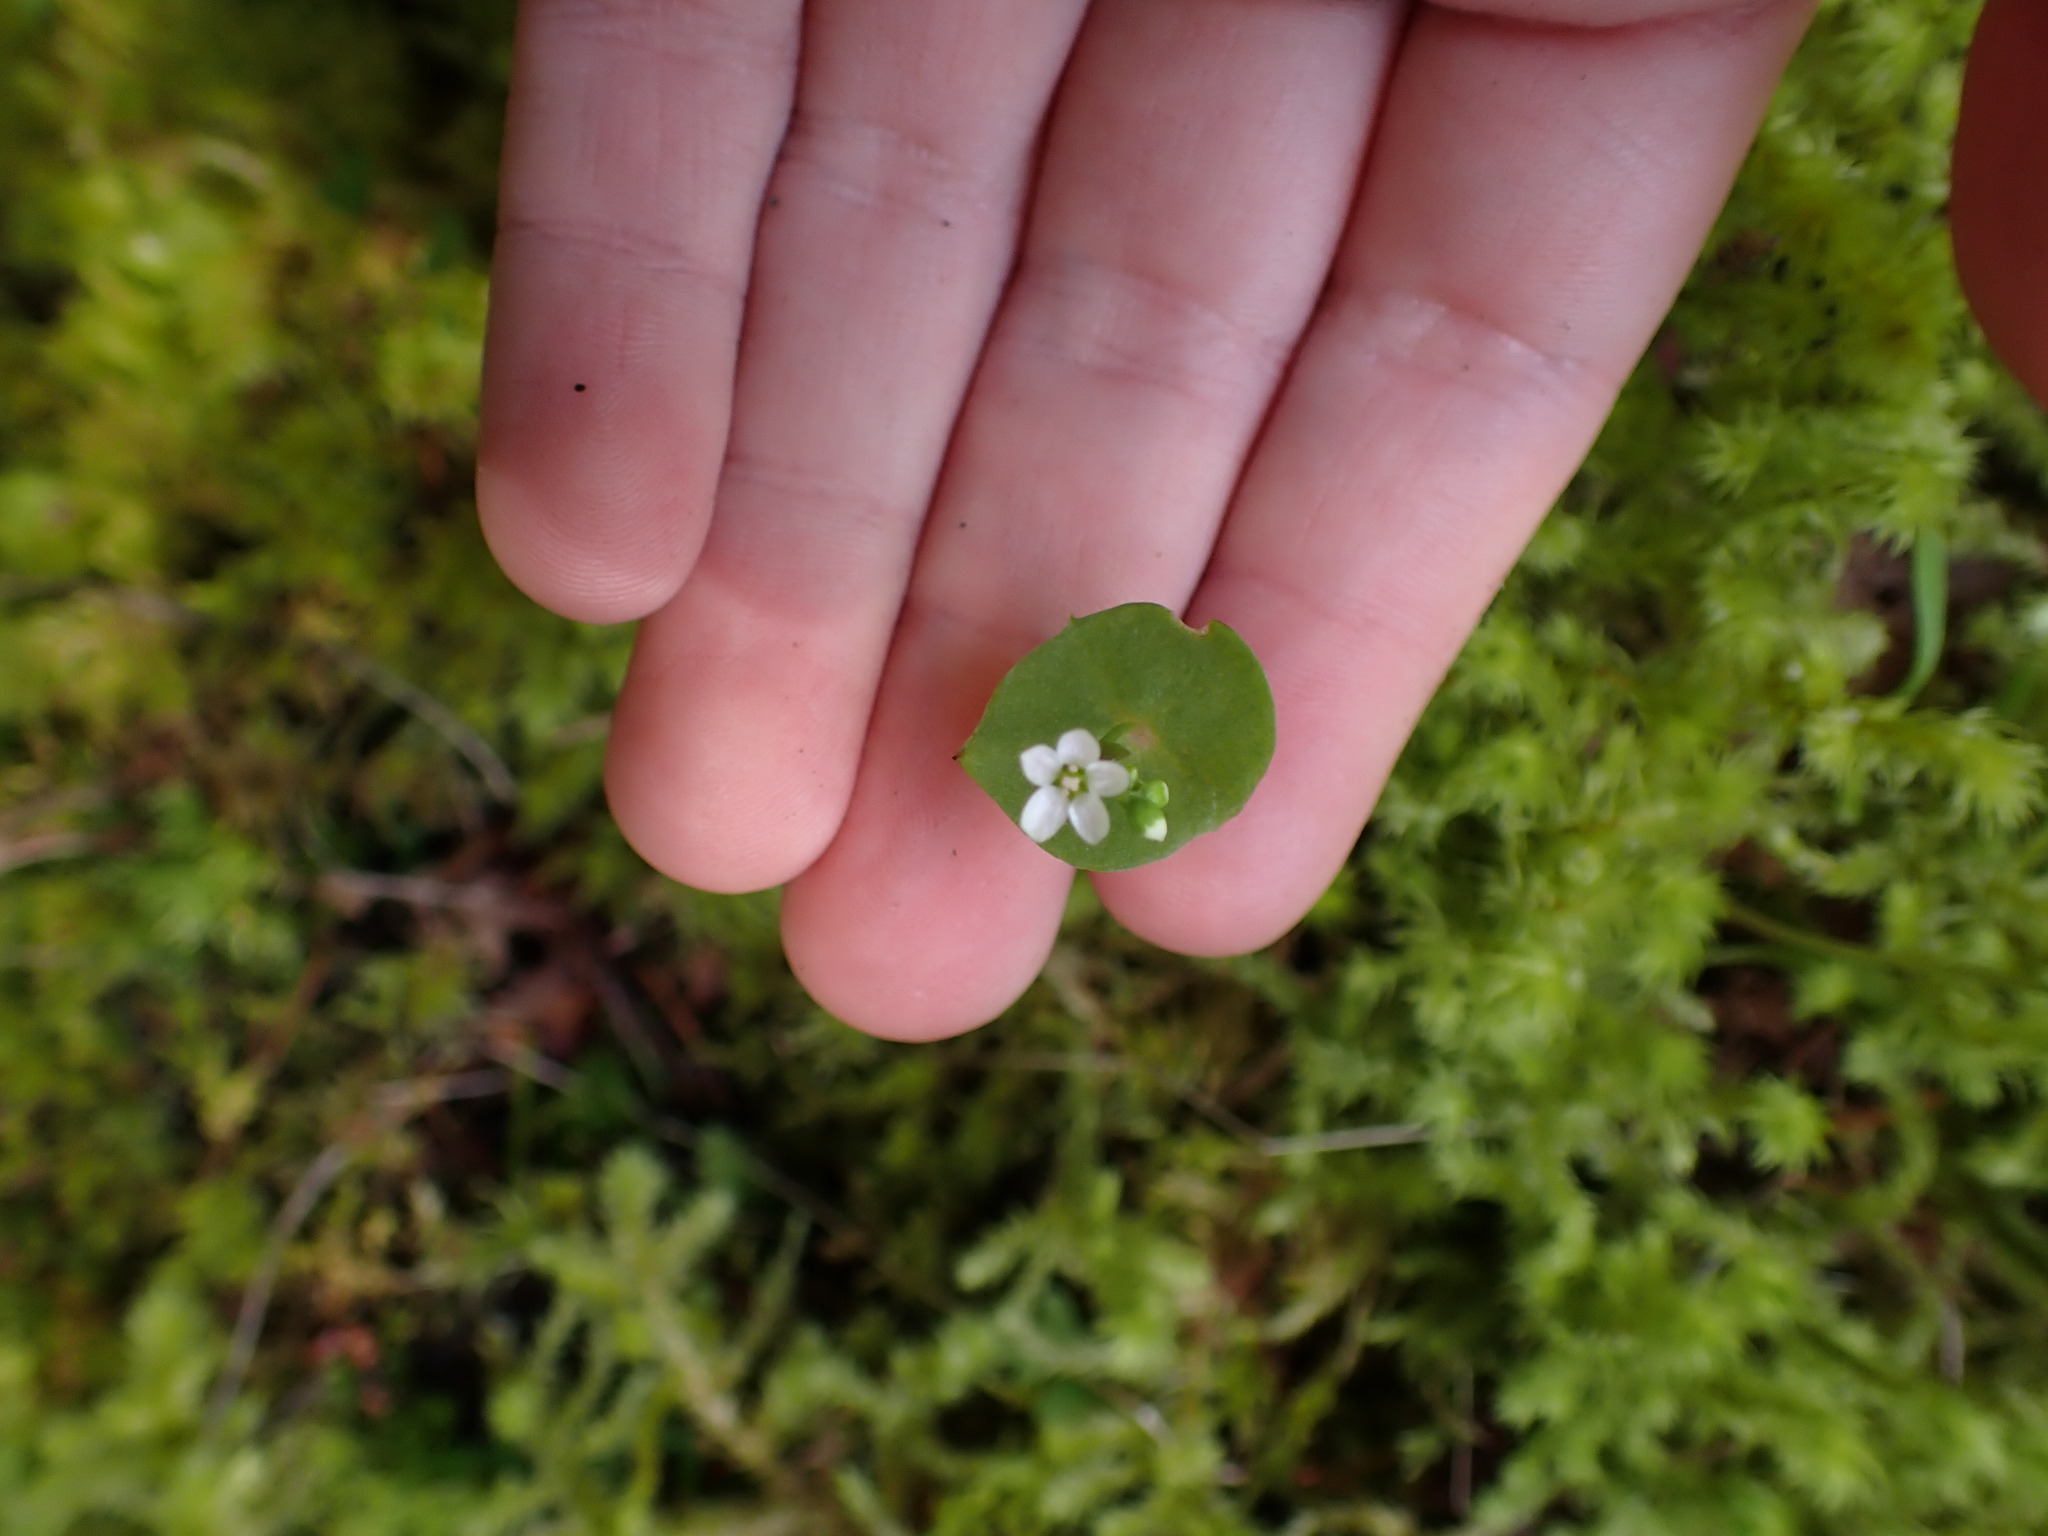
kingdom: Plantae
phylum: Tracheophyta
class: Magnoliopsida
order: Caryophyllales
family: Montiaceae
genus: Claytonia
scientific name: Claytonia perfoliata
